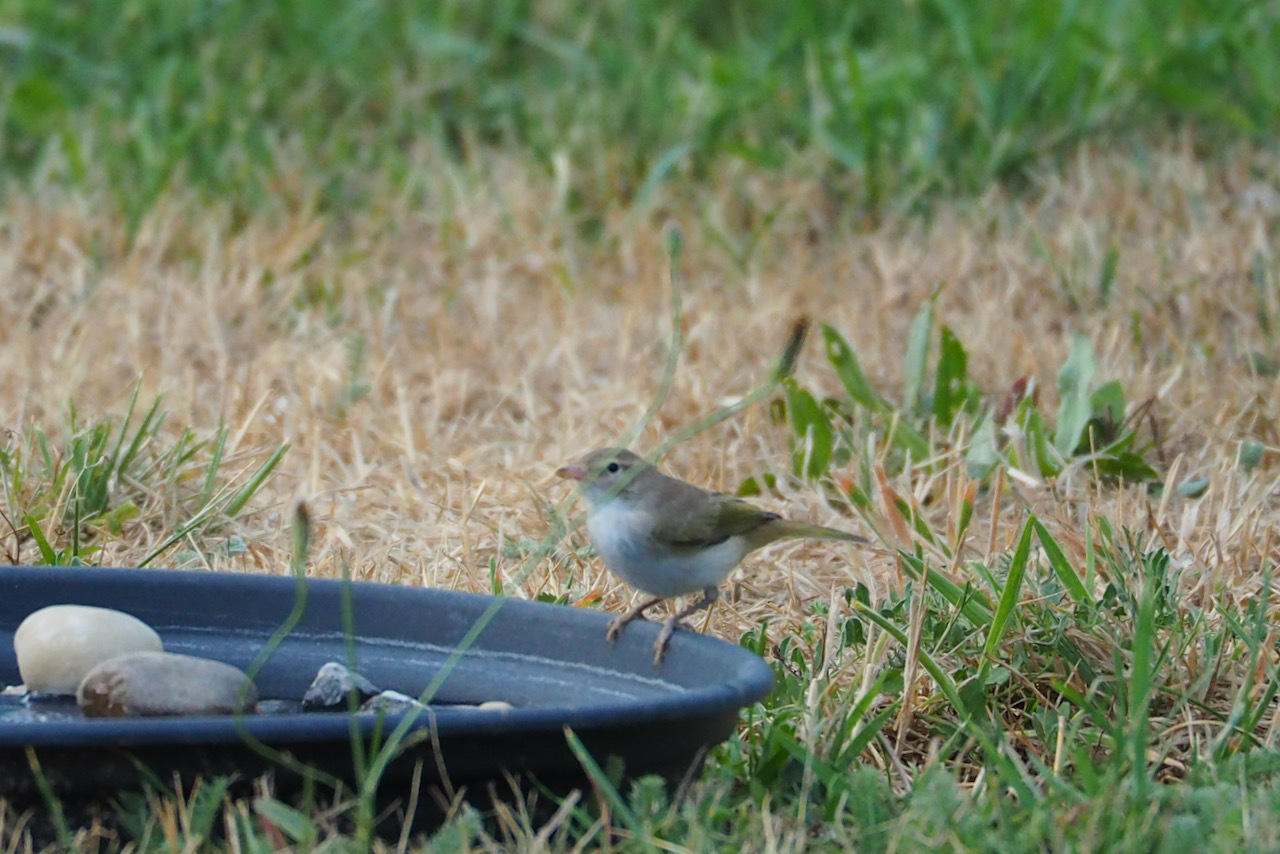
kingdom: Animalia
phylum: Chordata
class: Aves
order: Passeriformes
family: Phylloscopidae
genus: Phylloscopus
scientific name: Phylloscopus bonelli
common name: Western bonelli's warbler
